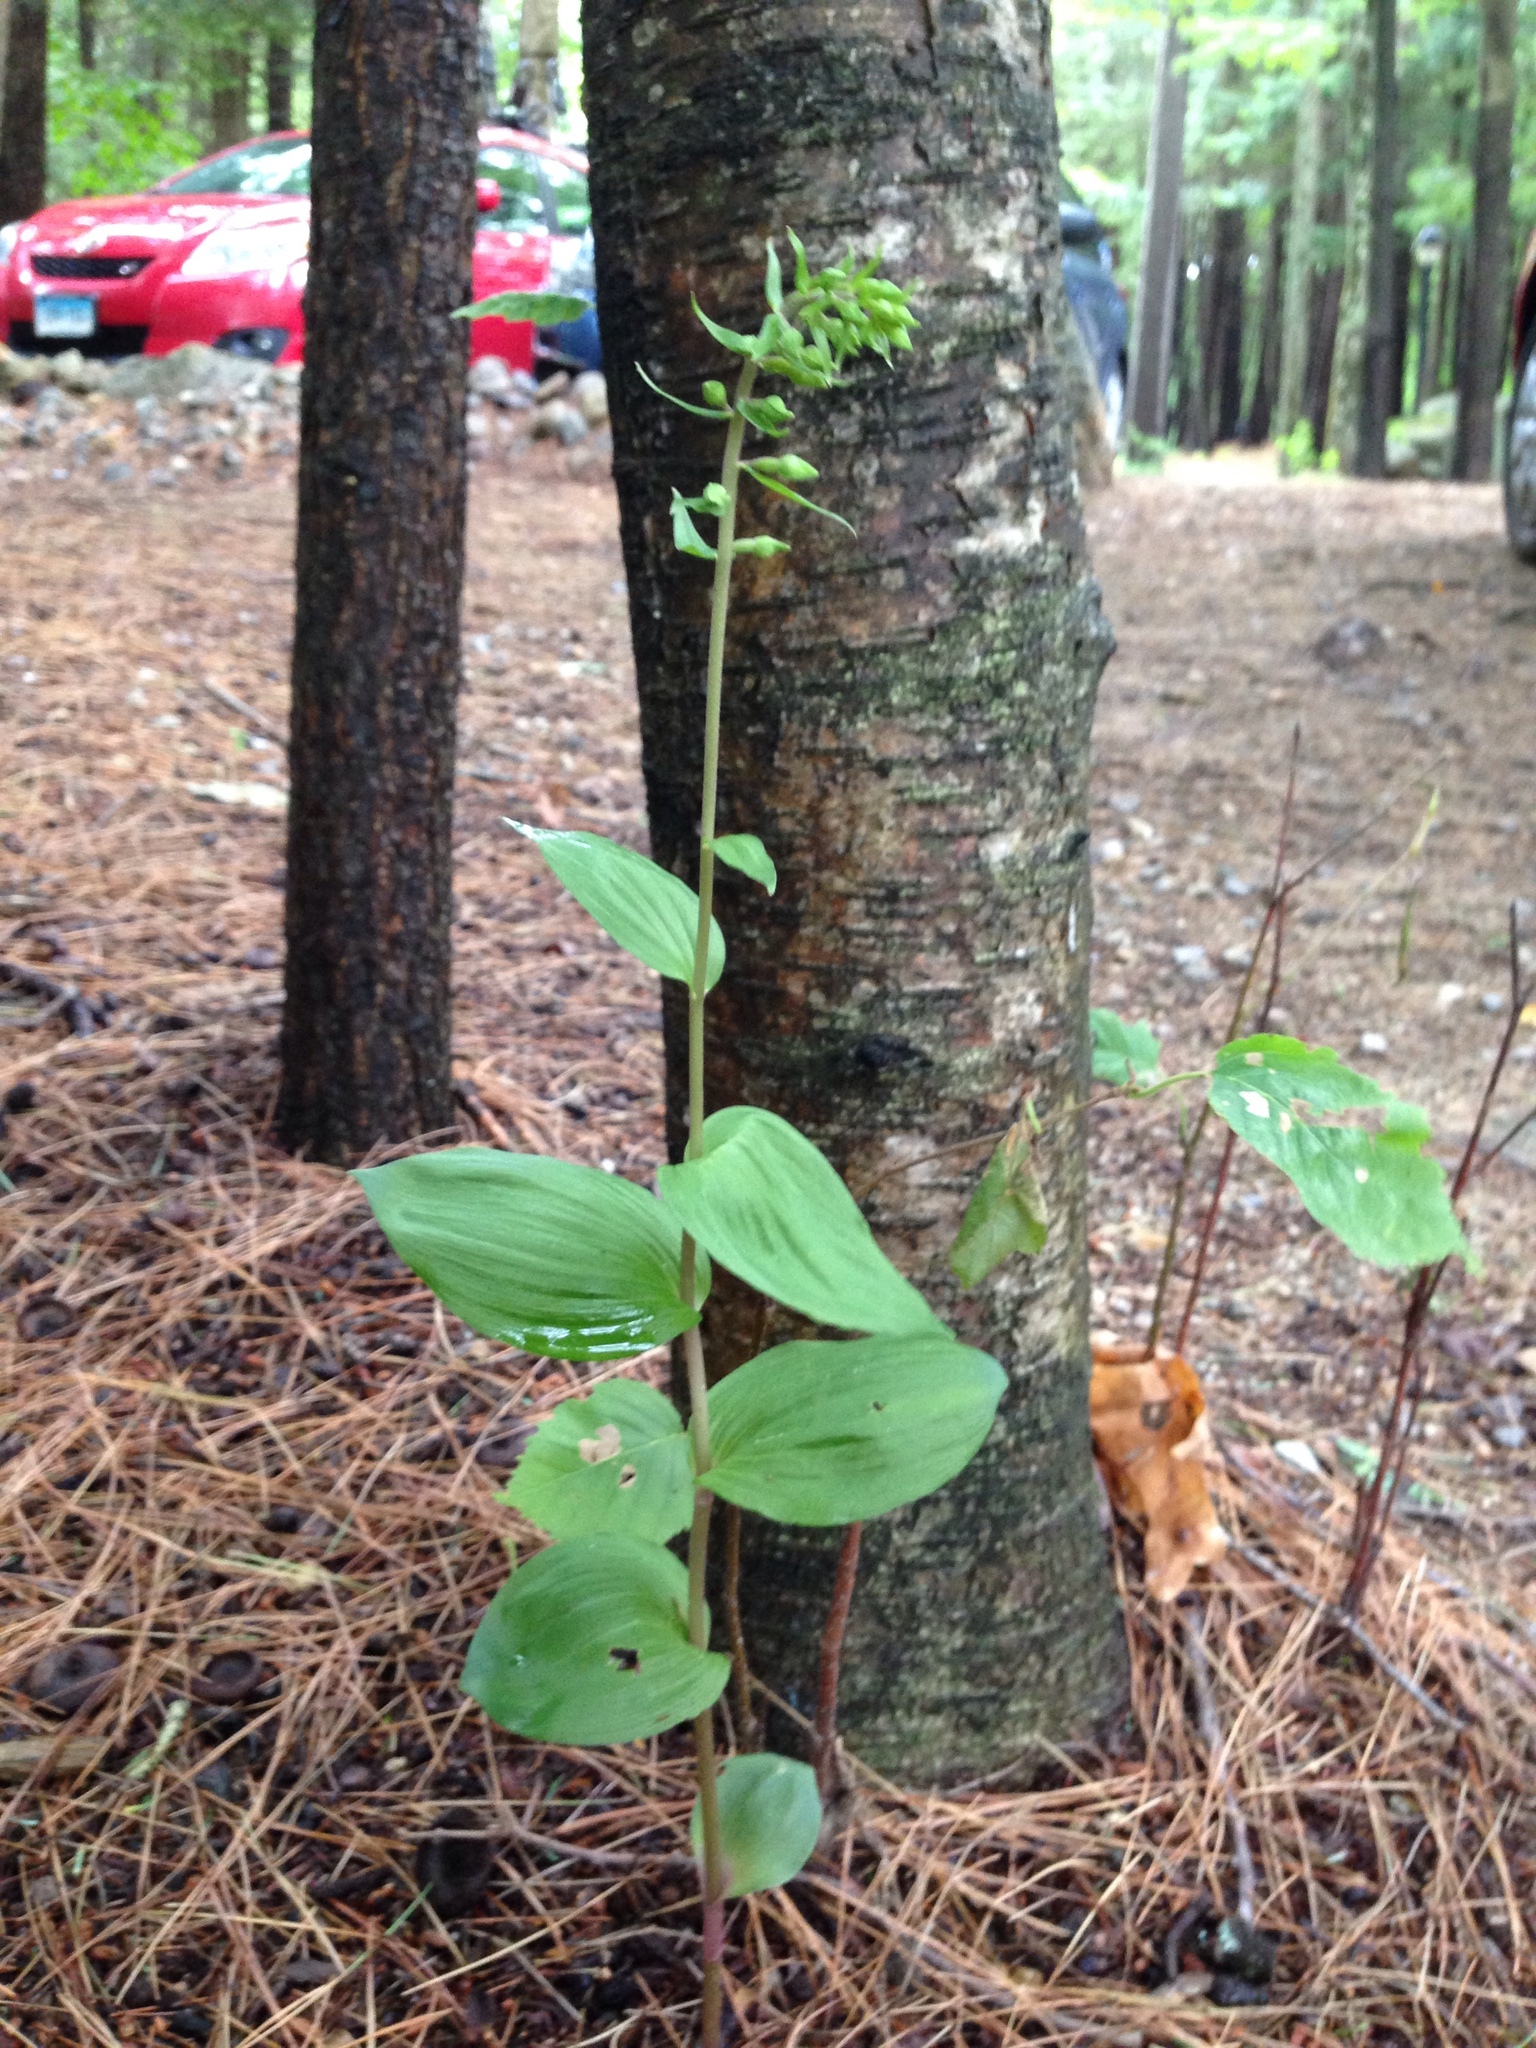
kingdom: Plantae
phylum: Tracheophyta
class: Liliopsida
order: Asparagales
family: Orchidaceae
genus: Epipactis
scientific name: Epipactis helleborine
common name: Broad-leaved helleborine
